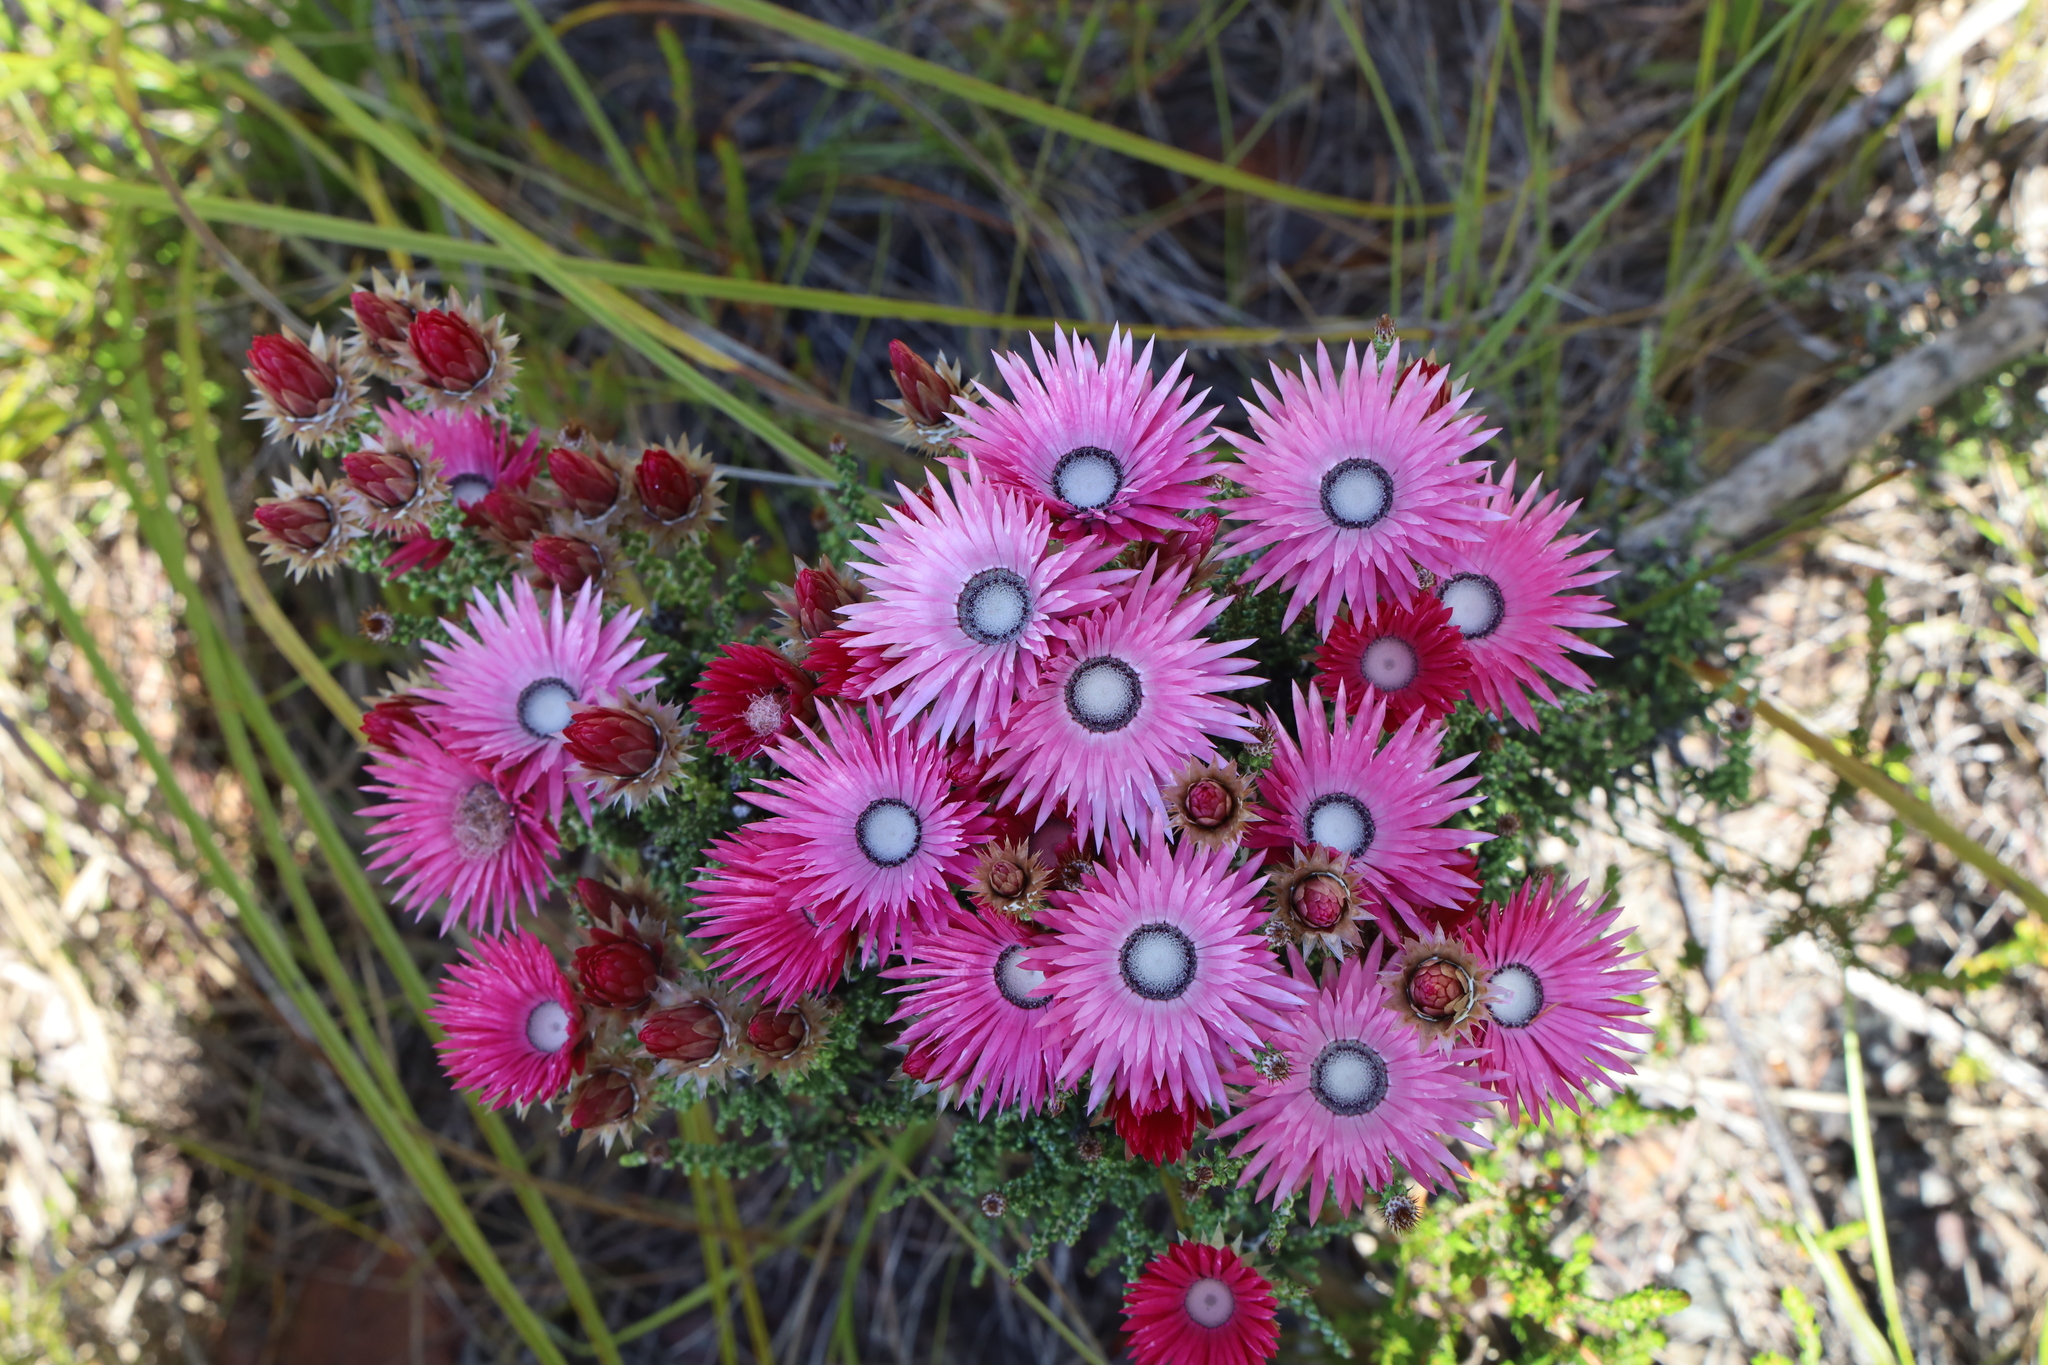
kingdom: Plantae
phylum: Tracheophyta
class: Magnoliopsida
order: Asterales
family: Asteraceae
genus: Phaenocoma
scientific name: Phaenocoma prolifera
